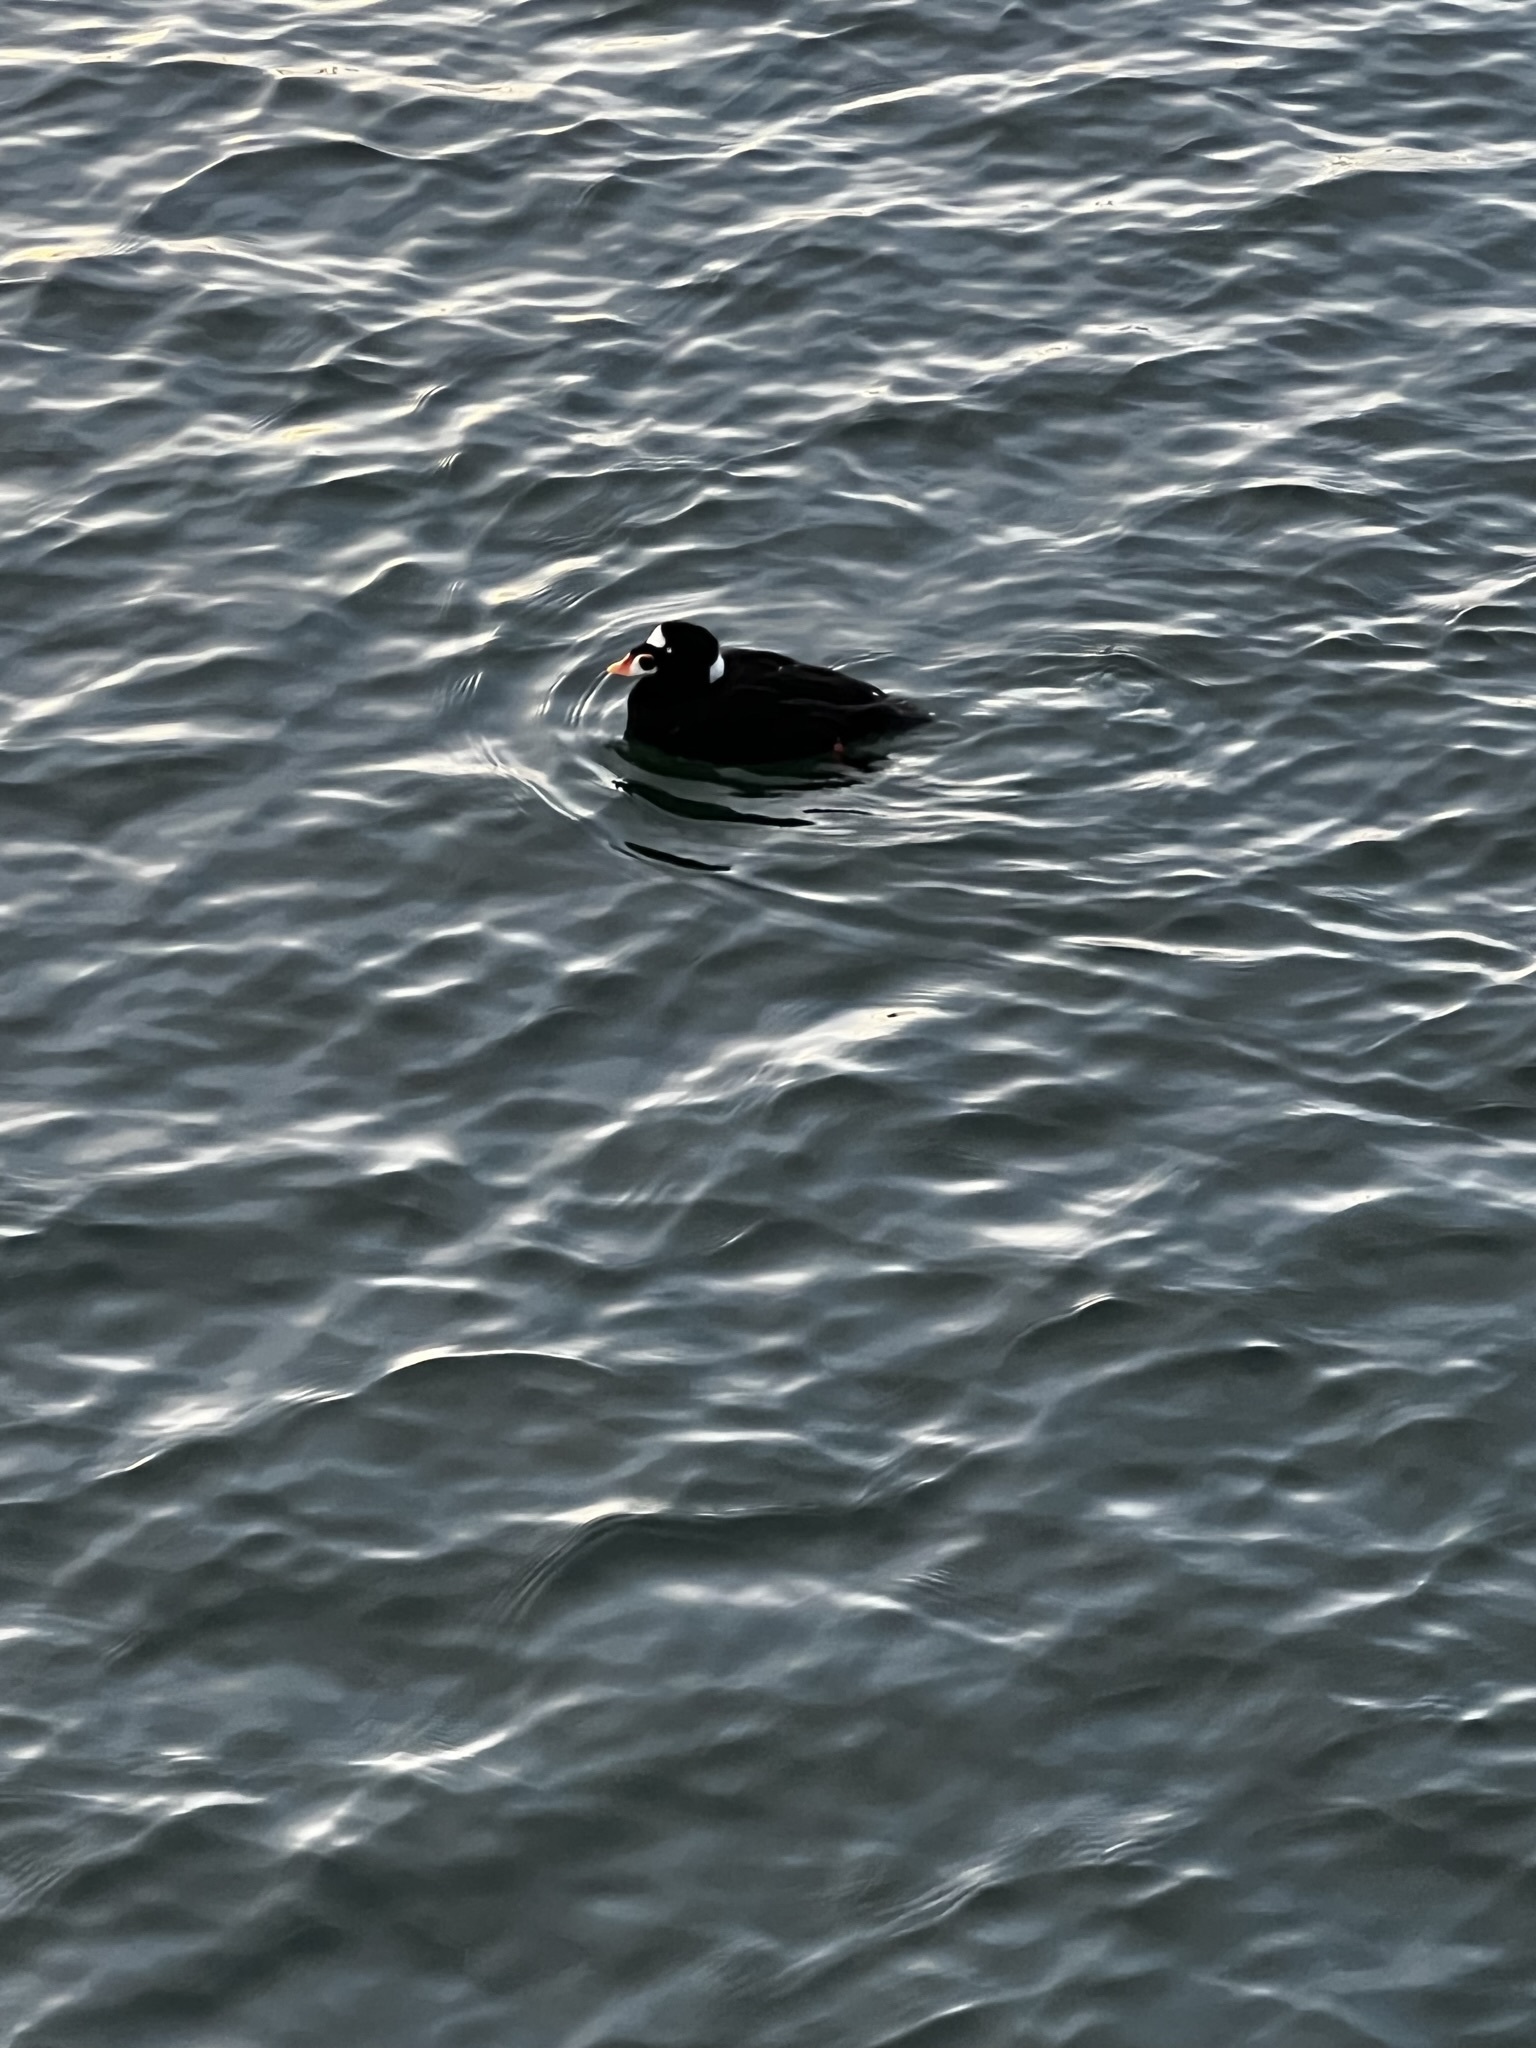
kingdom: Animalia
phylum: Chordata
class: Aves
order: Anseriformes
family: Anatidae
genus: Melanitta
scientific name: Melanitta perspicillata
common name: Surf scoter
